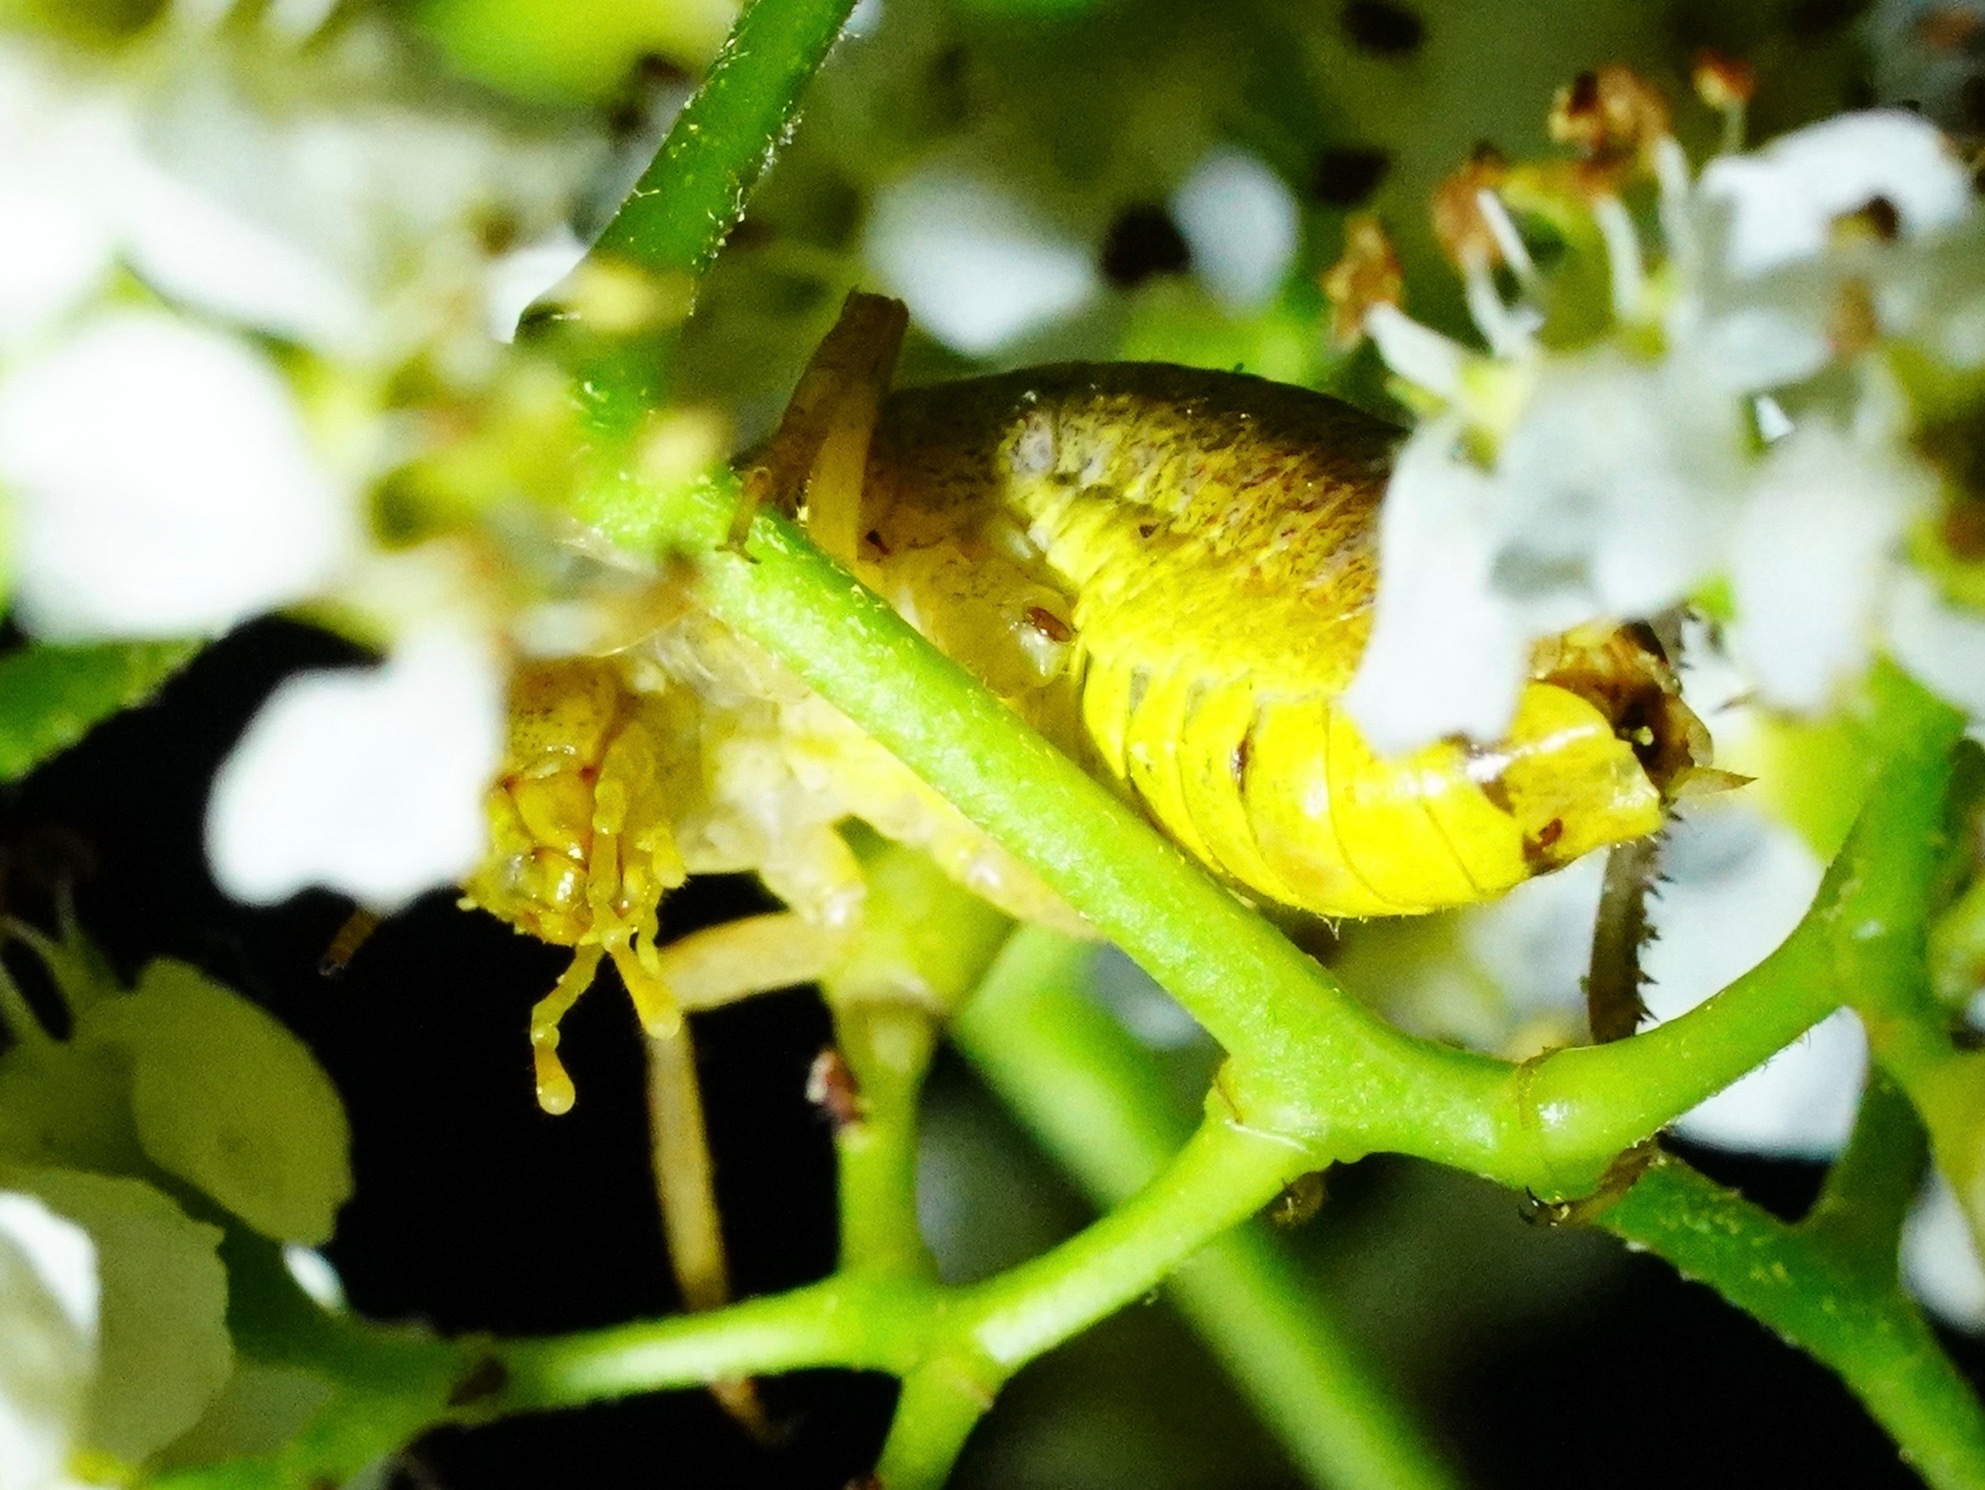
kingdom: Animalia
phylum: Arthropoda
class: Insecta
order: Orthoptera
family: Rhaphidophoridae
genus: Gammarotettix
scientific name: Gammarotettix bilobatus
